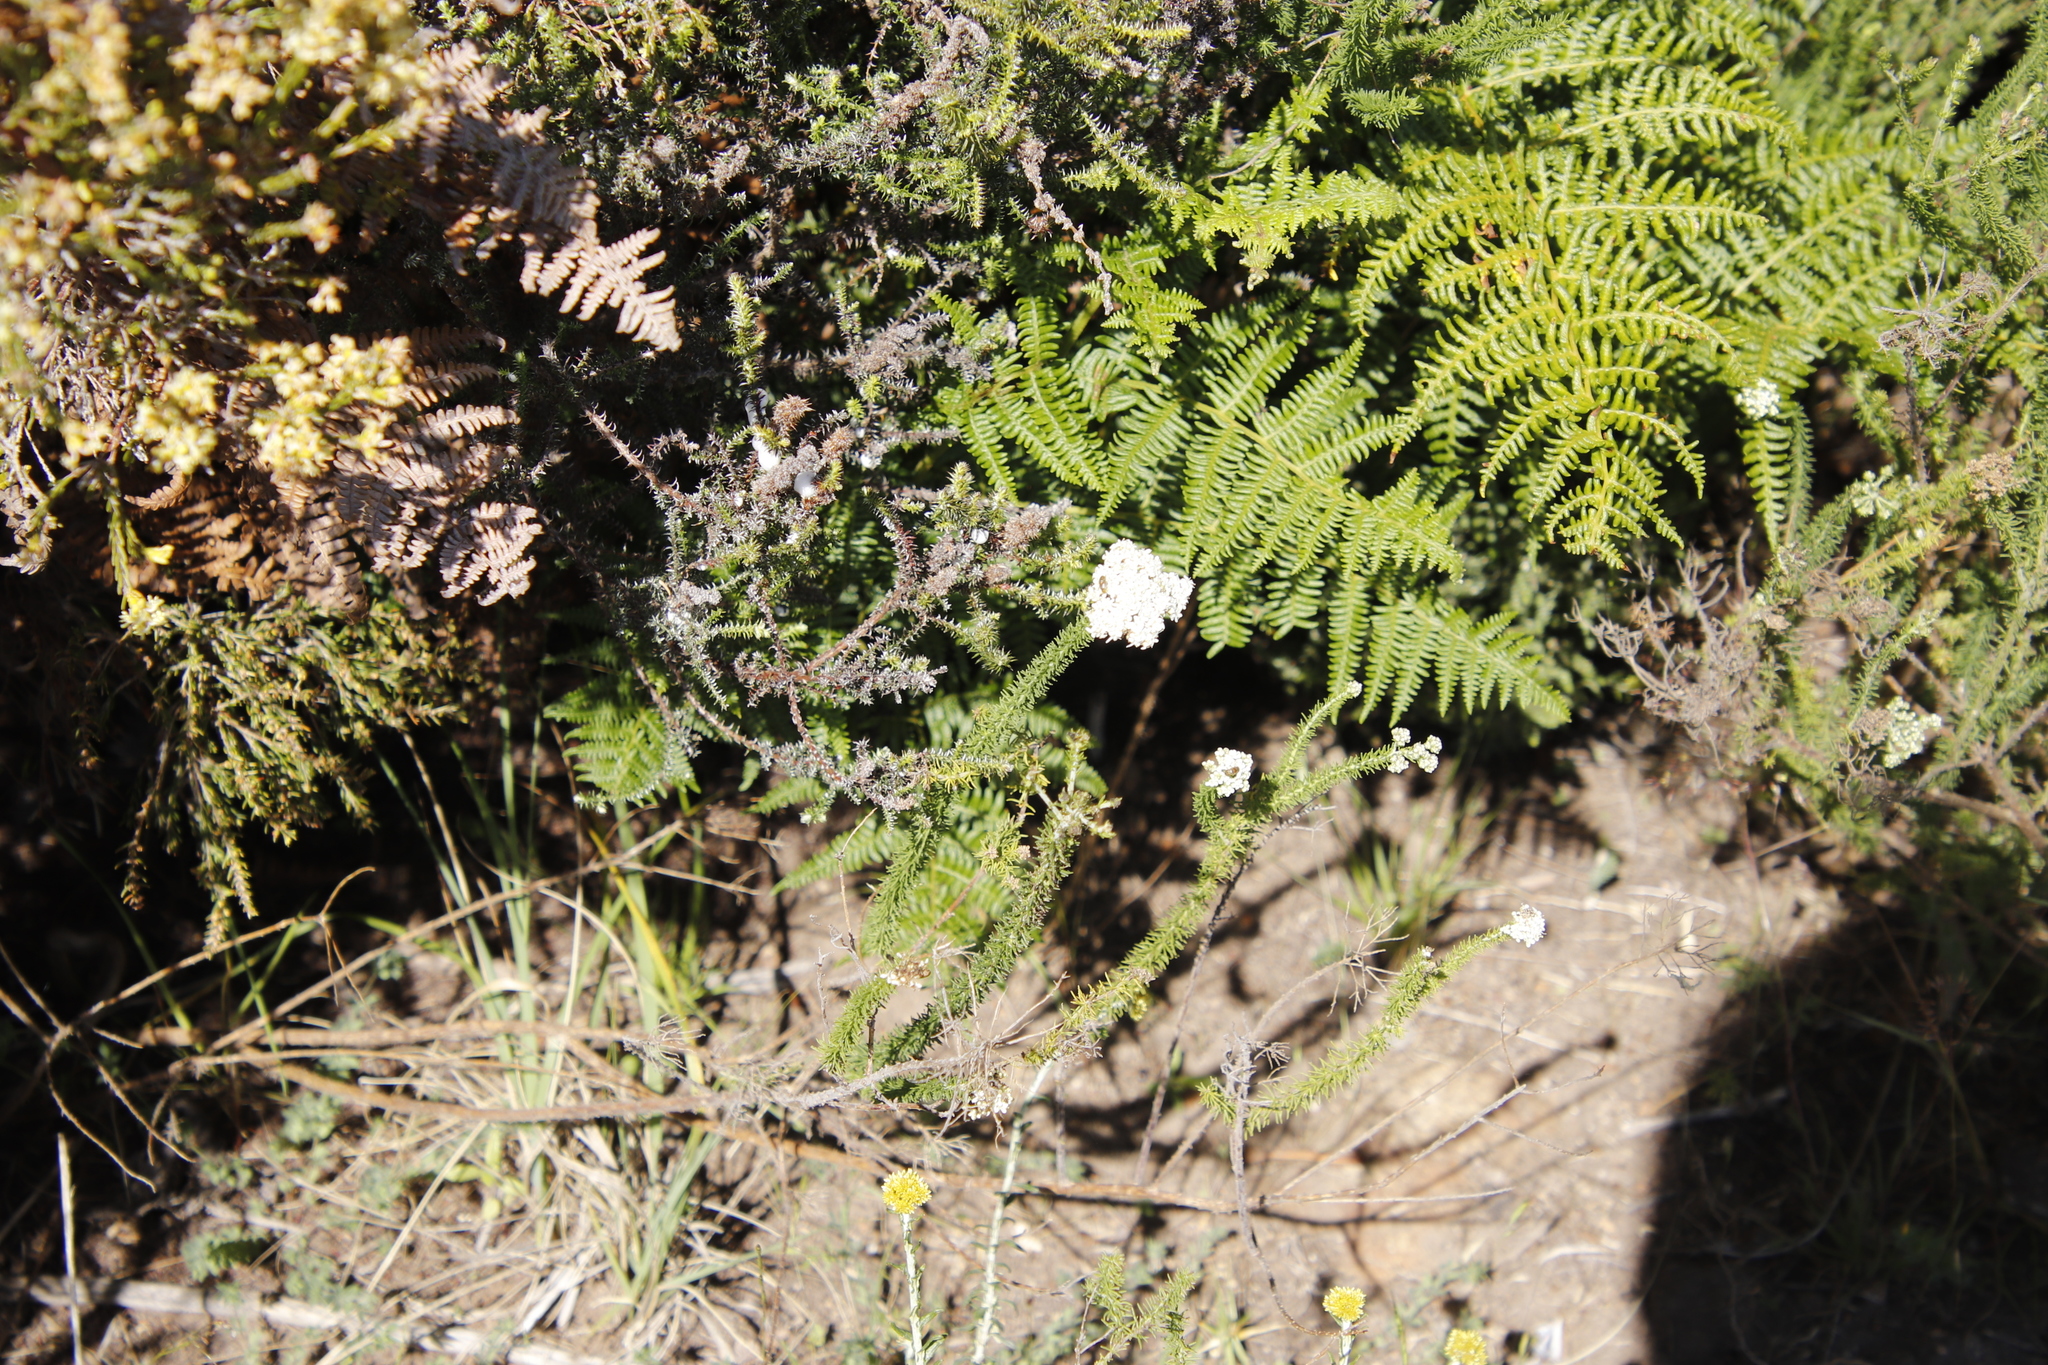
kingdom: Plantae
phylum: Tracheophyta
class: Magnoliopsida
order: Lamiales
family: Scrophulariaceae
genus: Selago
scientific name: Selago corymbosa
